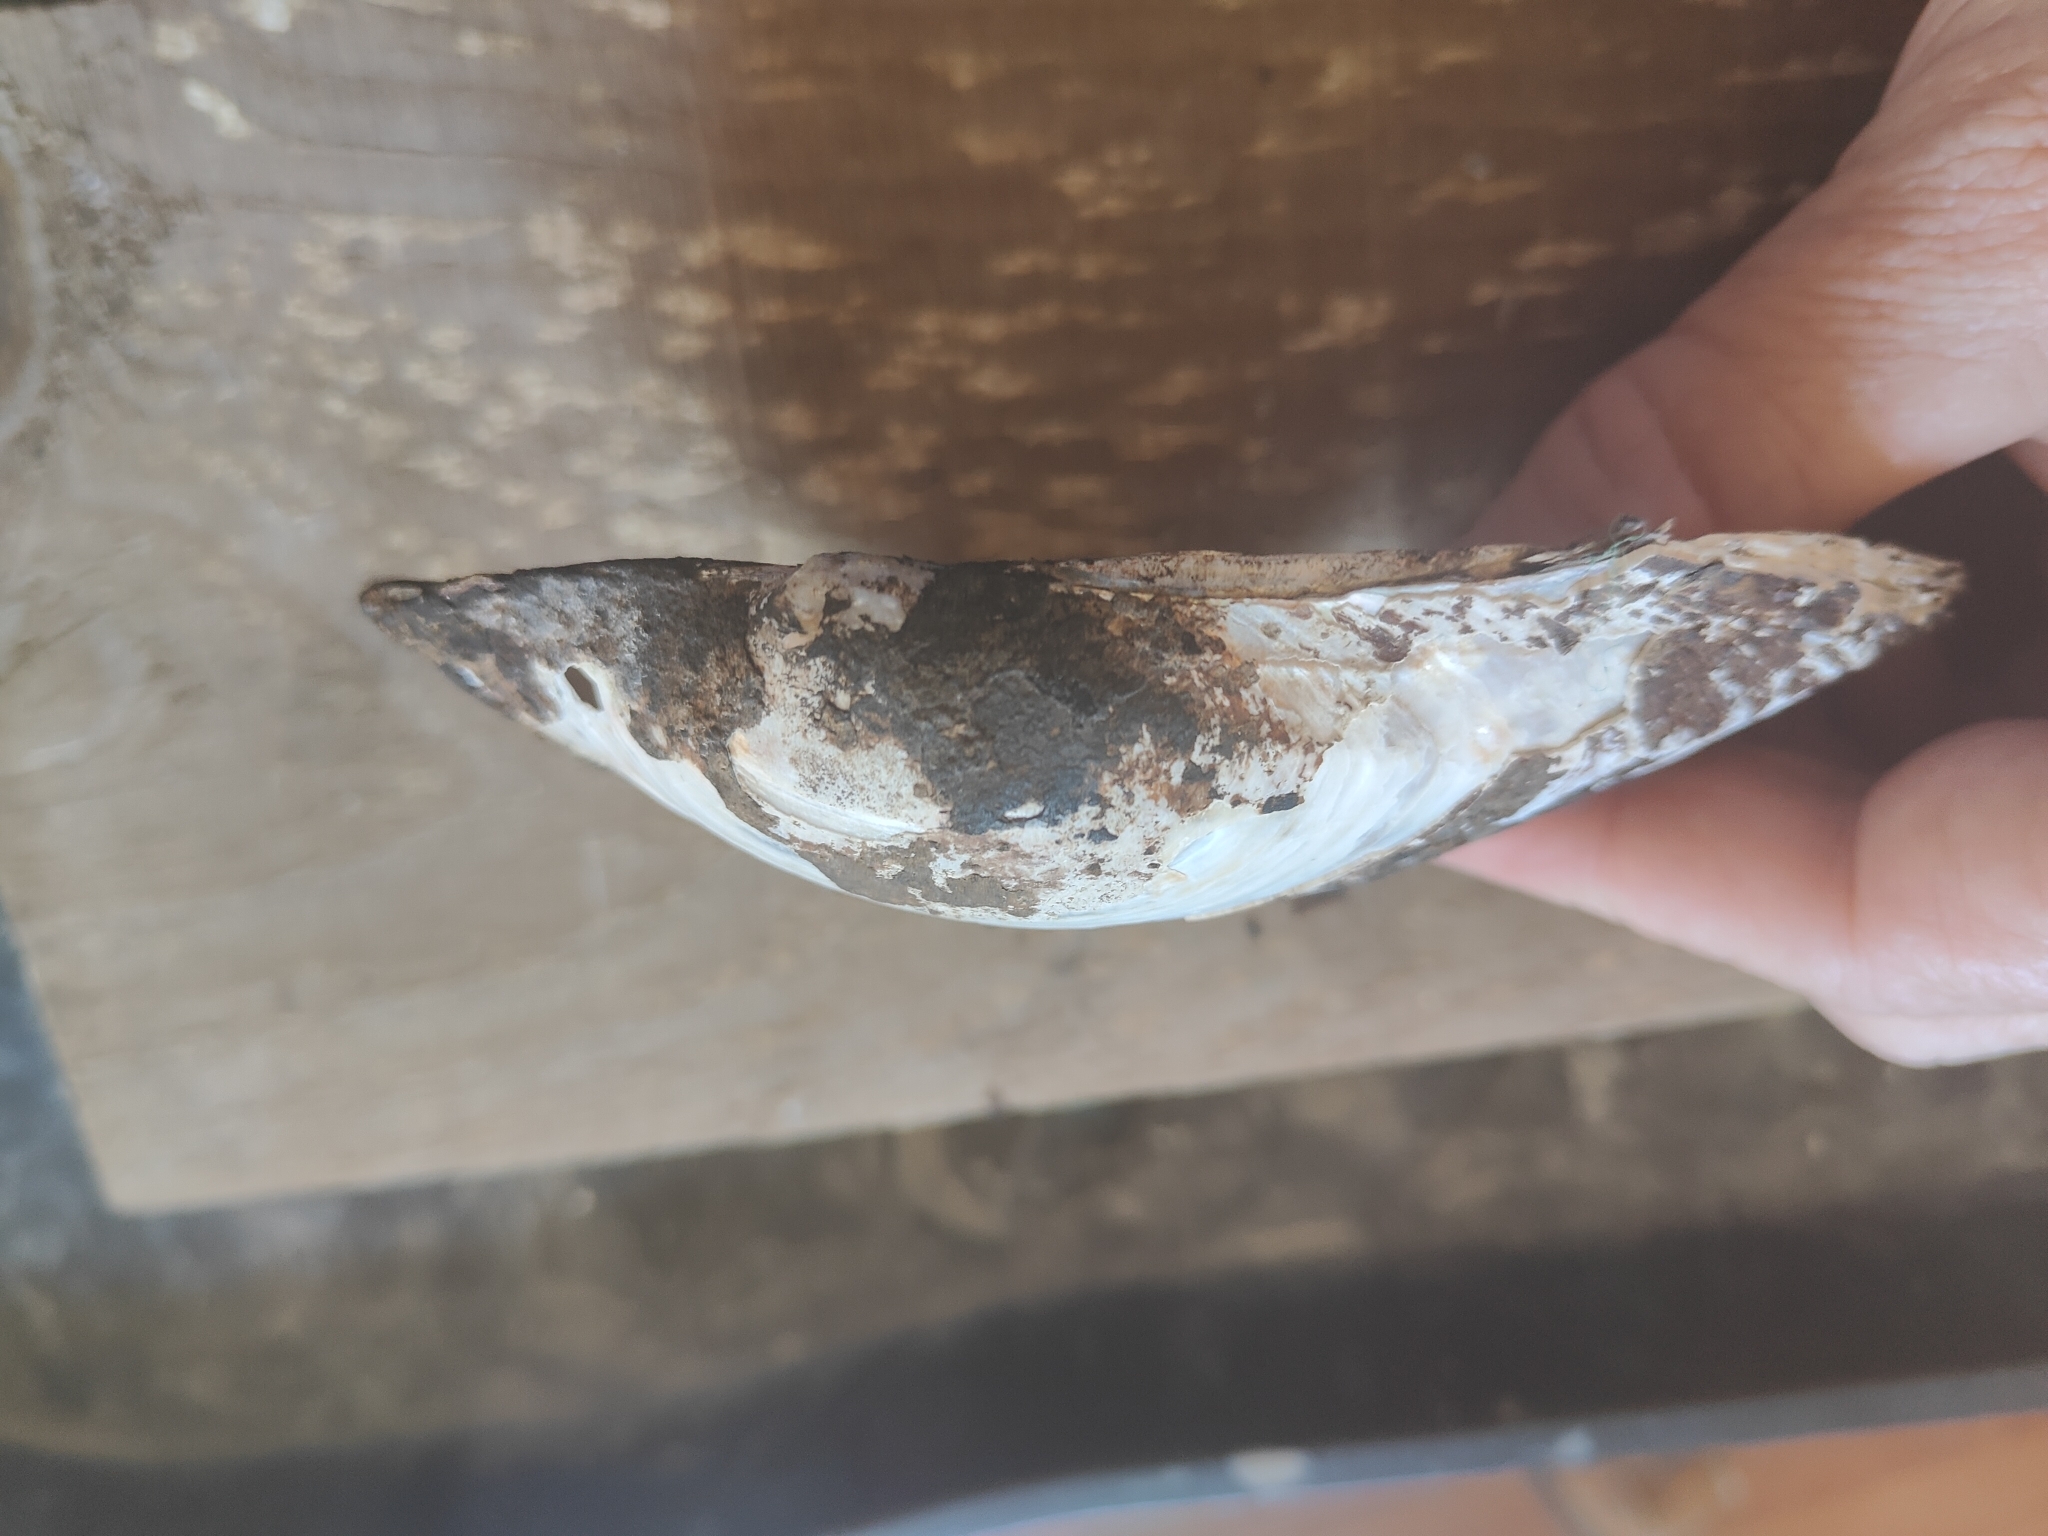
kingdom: Animalia
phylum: Mollusca
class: Bivalvia
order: Unionida
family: Unionidae
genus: Pyganodon
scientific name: Pyganodon grandis
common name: Giant floater
